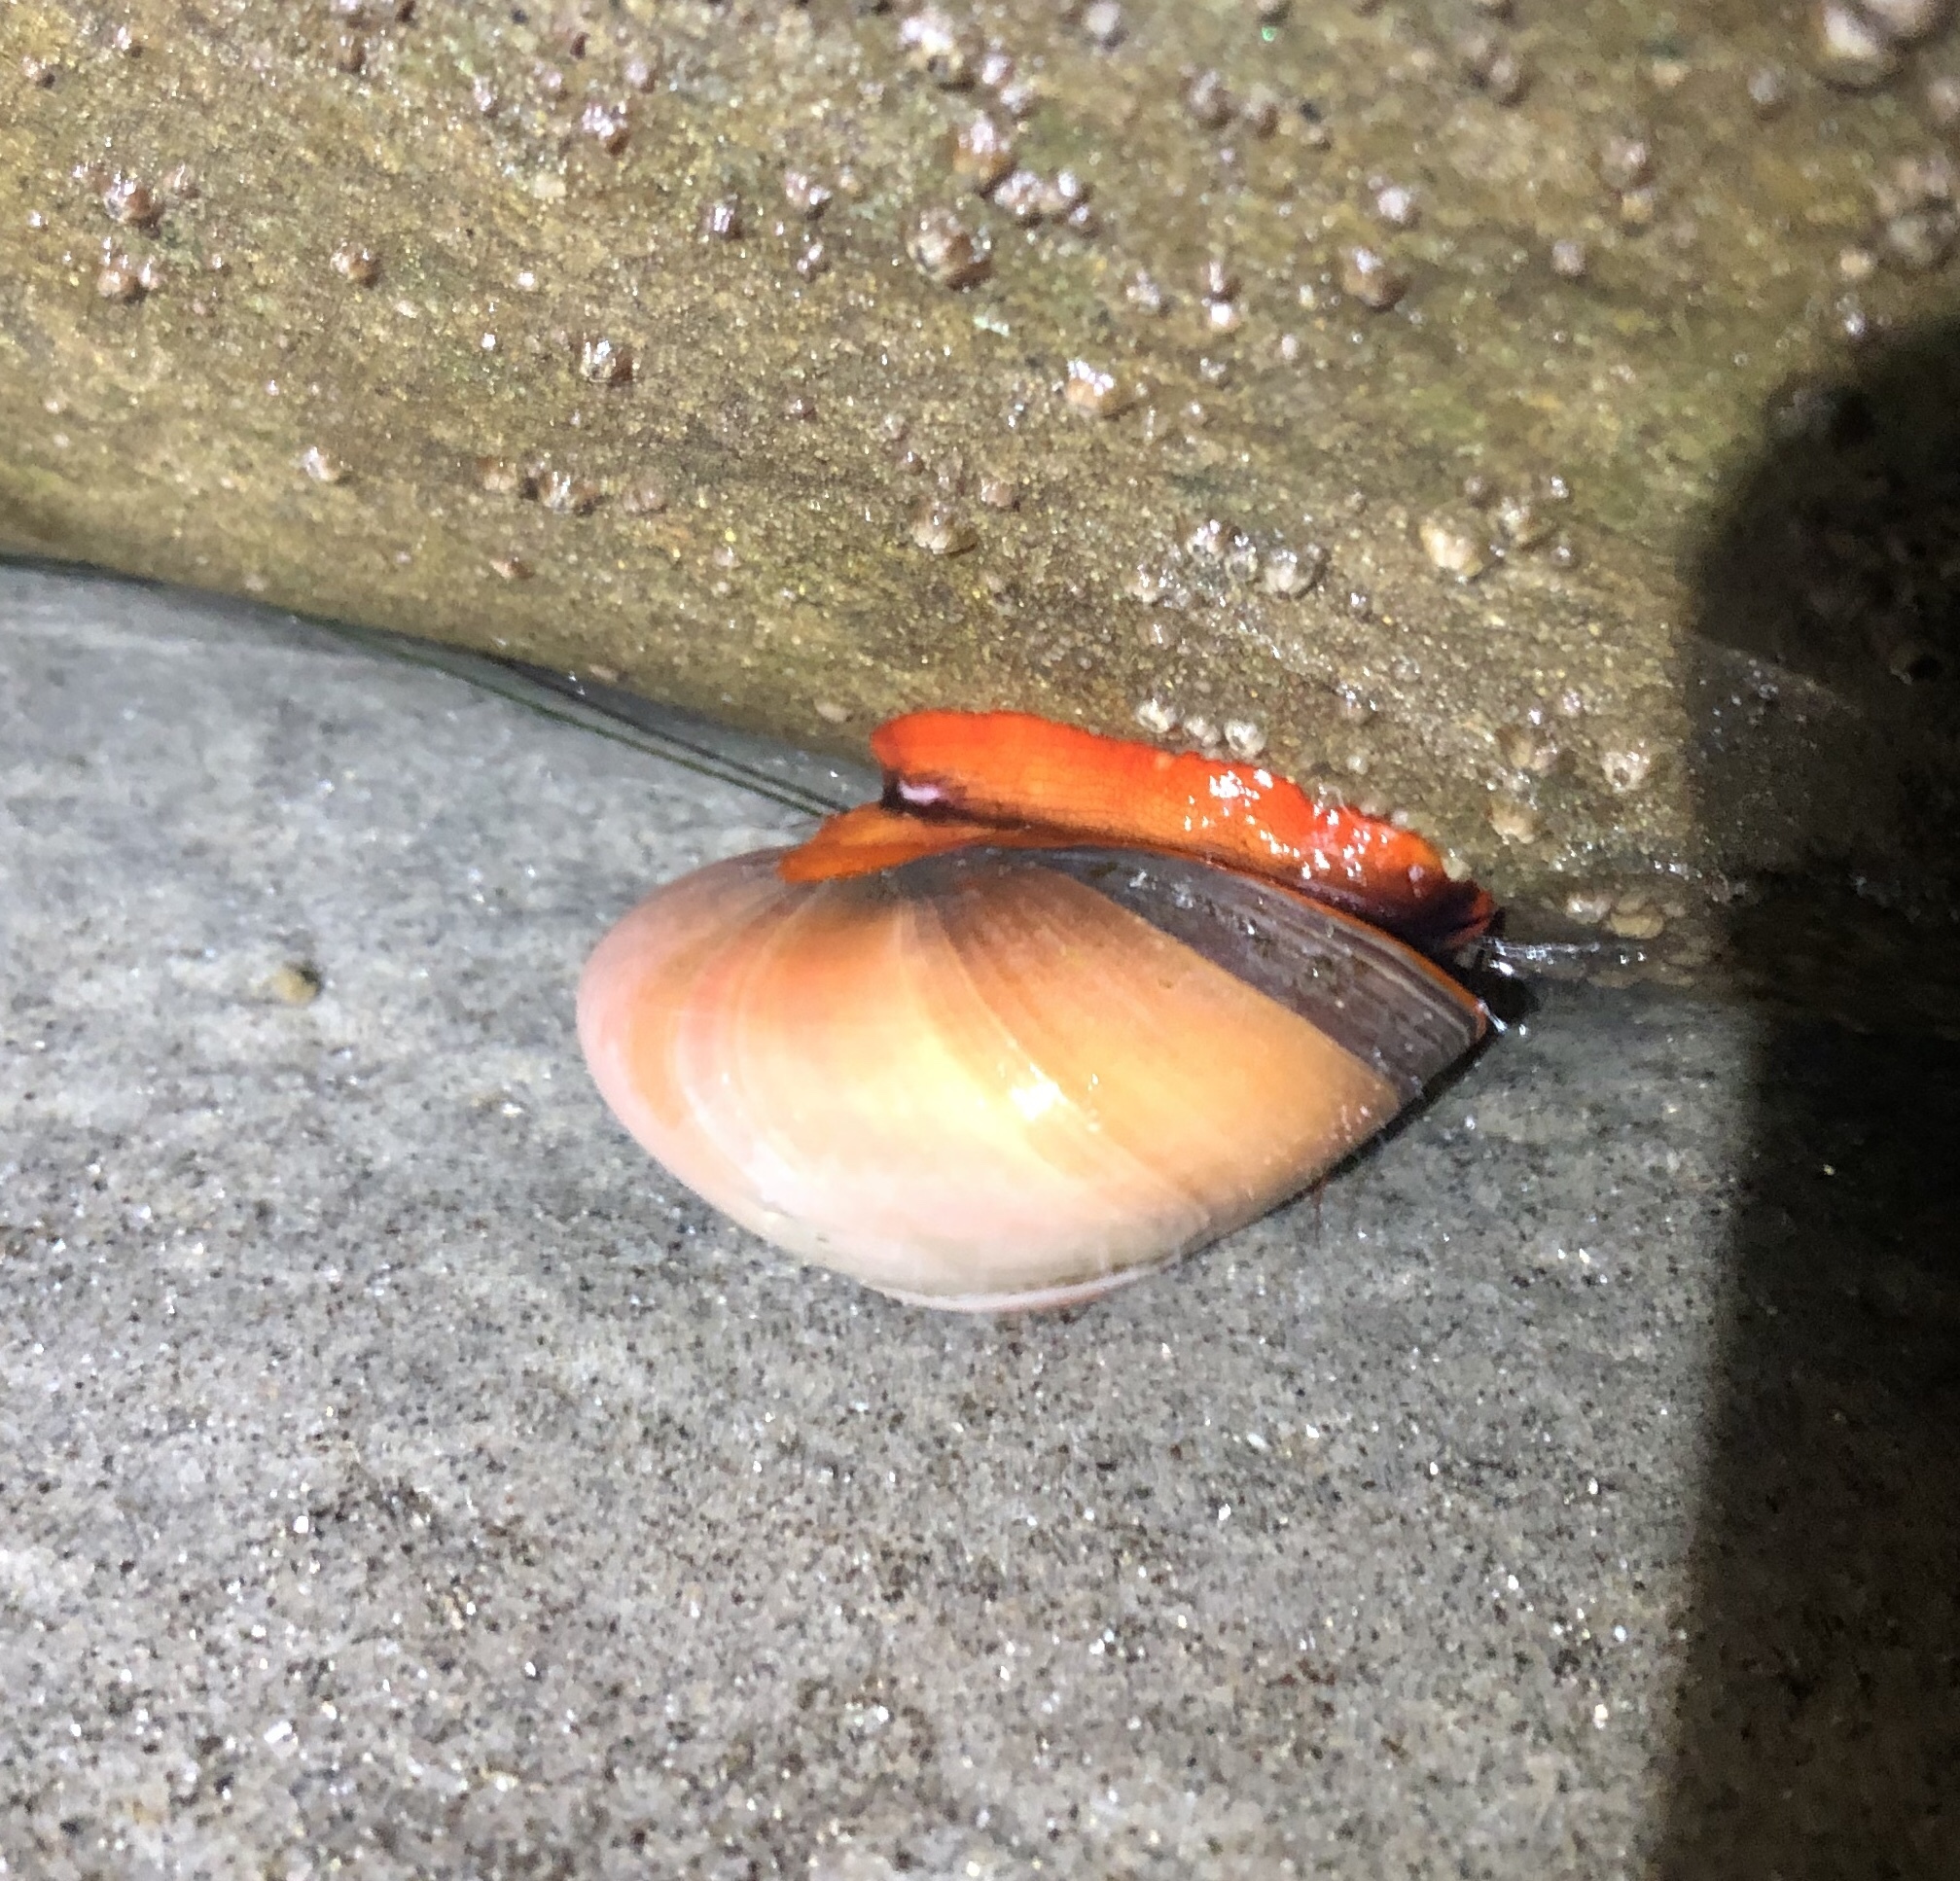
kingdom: Animalia
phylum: Mollusca
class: Gastropoda
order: Trochida
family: Tegulidae
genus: Norrisia
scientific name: Norrisia norrisii
